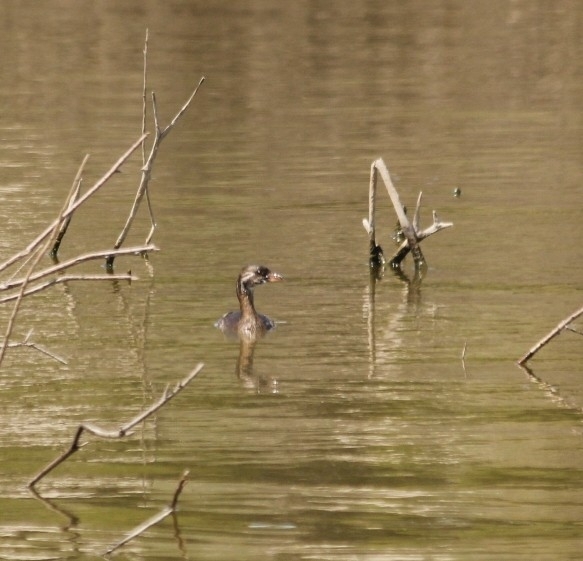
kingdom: Animalia
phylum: Chordata
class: Aves
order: Podicipediformes
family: Podicipedidae
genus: Podilymbus
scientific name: Podilymbus podiceps
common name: Pied-billed grebe
